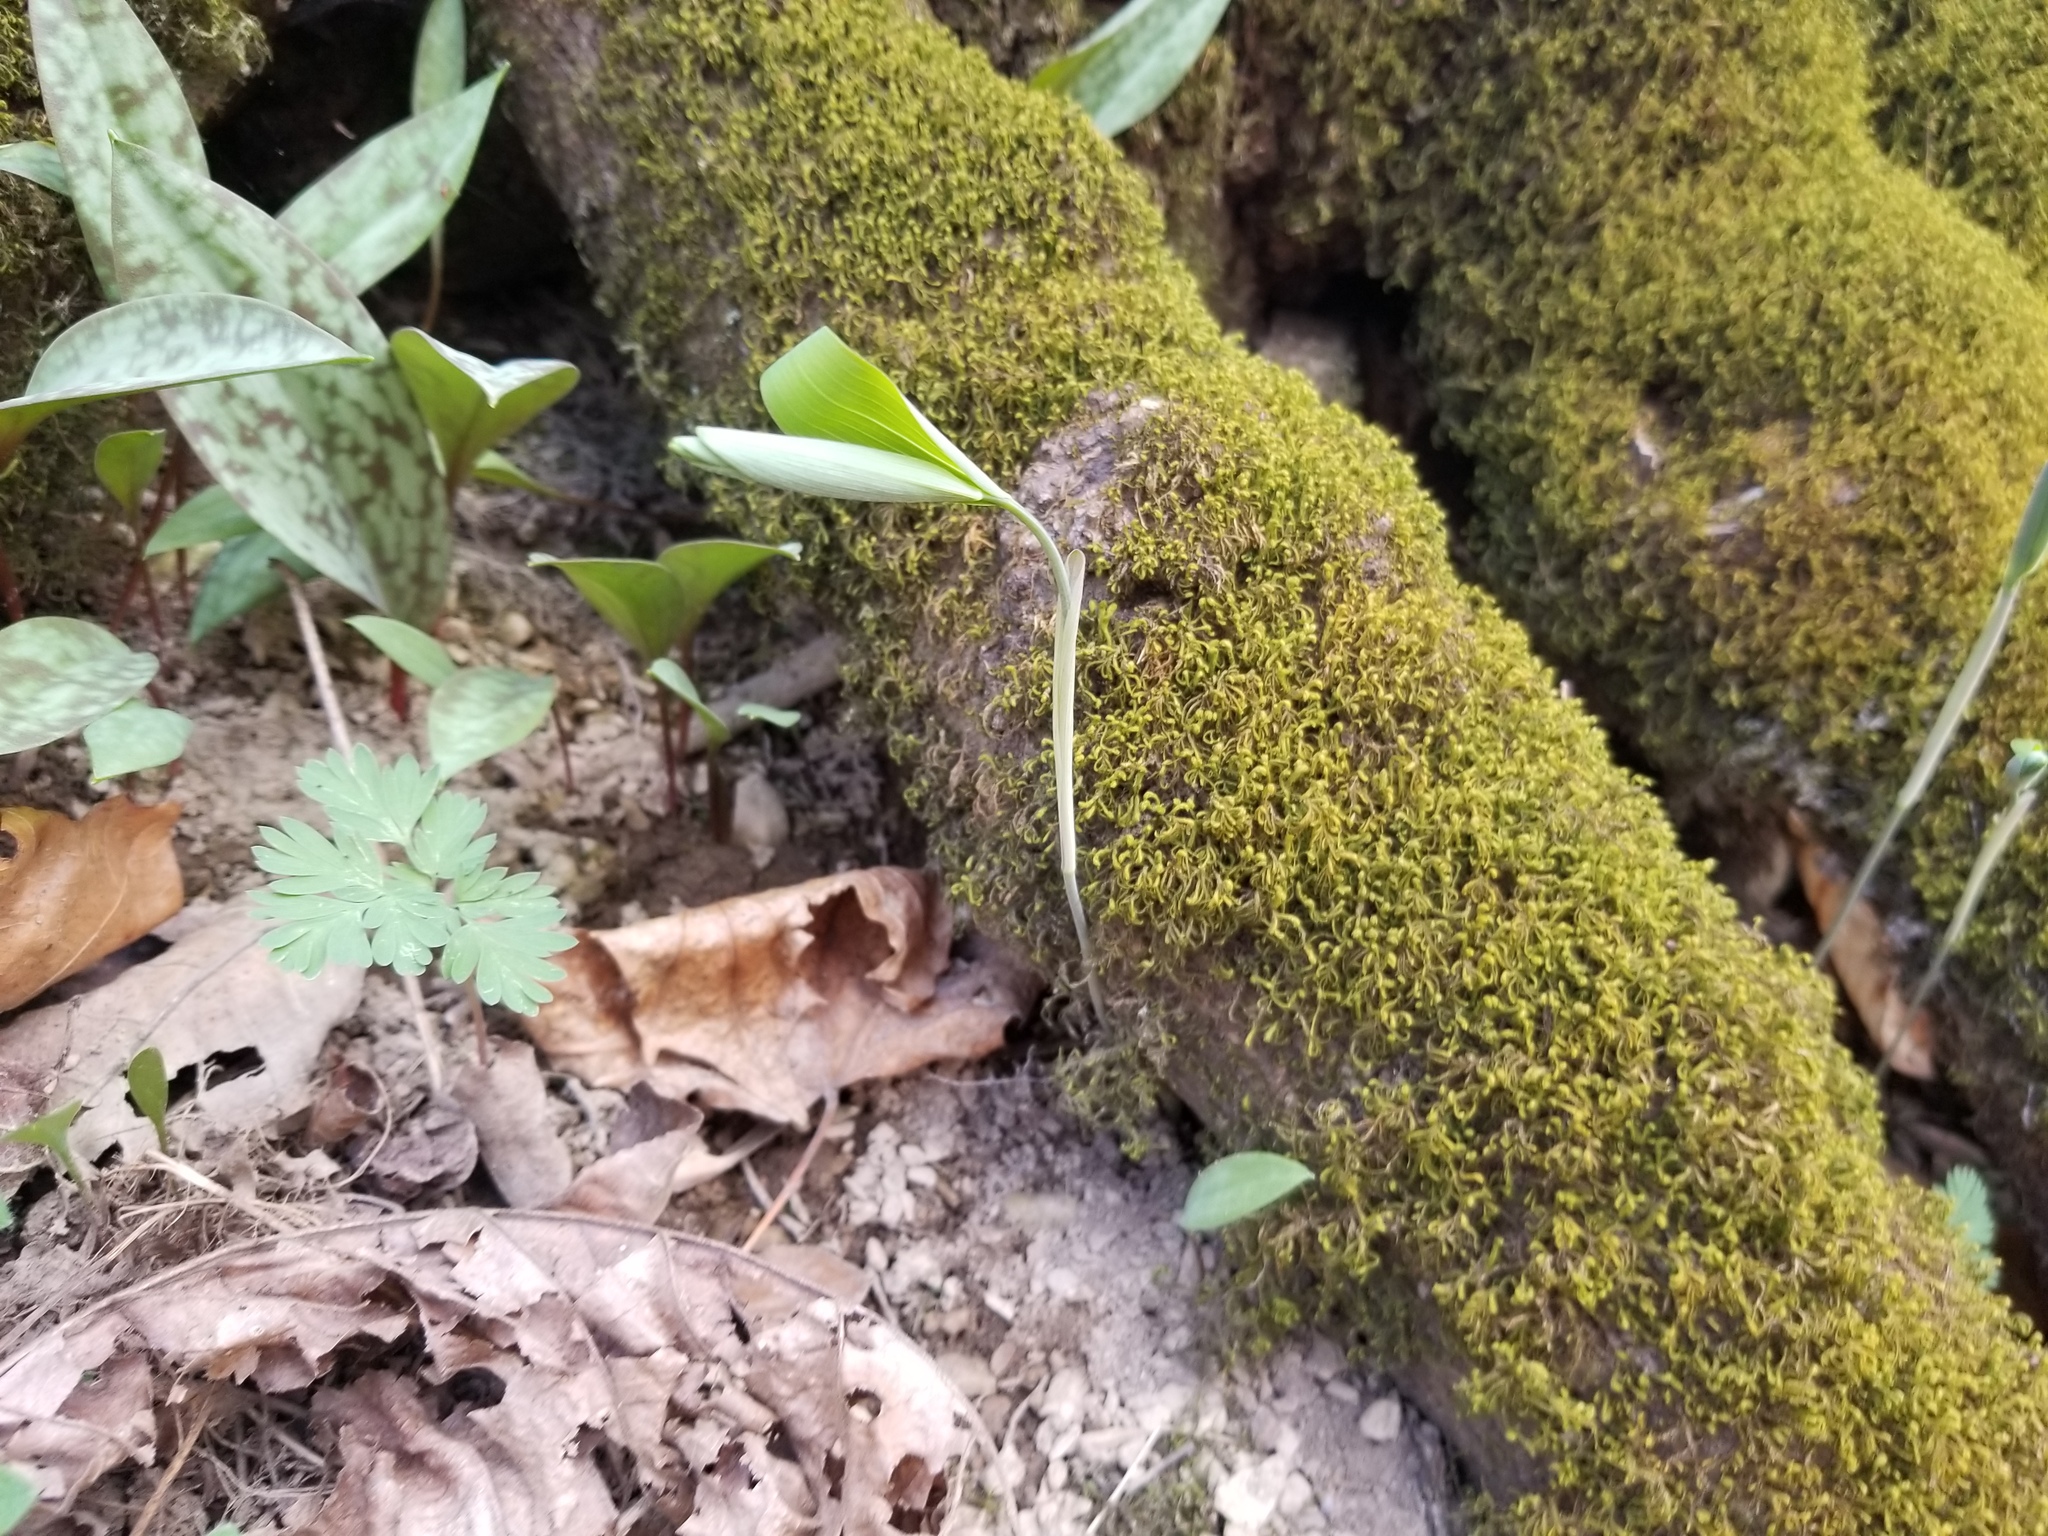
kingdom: Plantae
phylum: Tracheophyta
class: Liliopsida
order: Asparagales
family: Asparagaceae
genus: Polygonatum
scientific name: Polygonatum pubescens
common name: Downy solomon's seal
